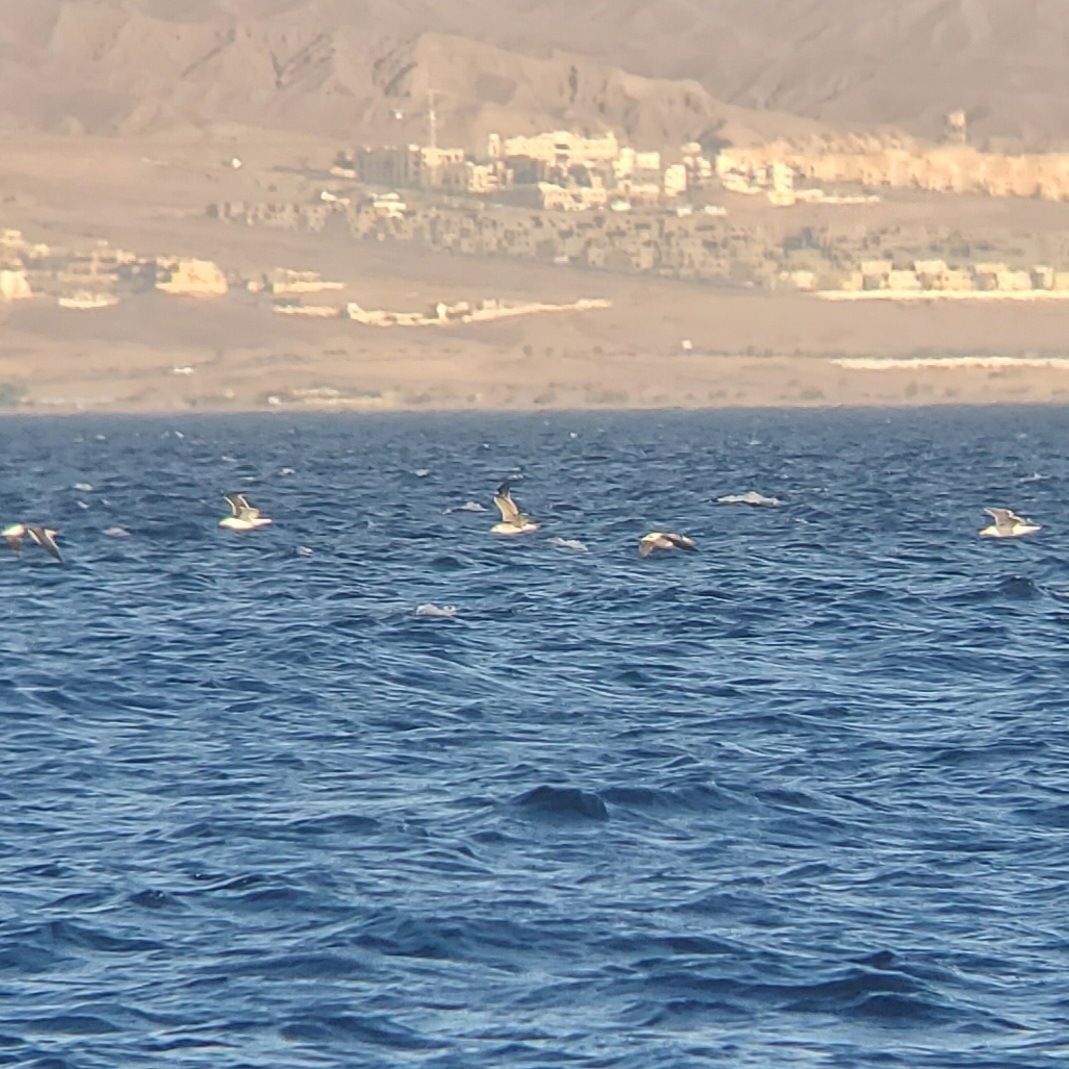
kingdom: Animalia
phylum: Chordata
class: Aves
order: Charadriiformes
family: Laridae
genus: Larus
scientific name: Larus fuscus
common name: Lesser black-backed gull
